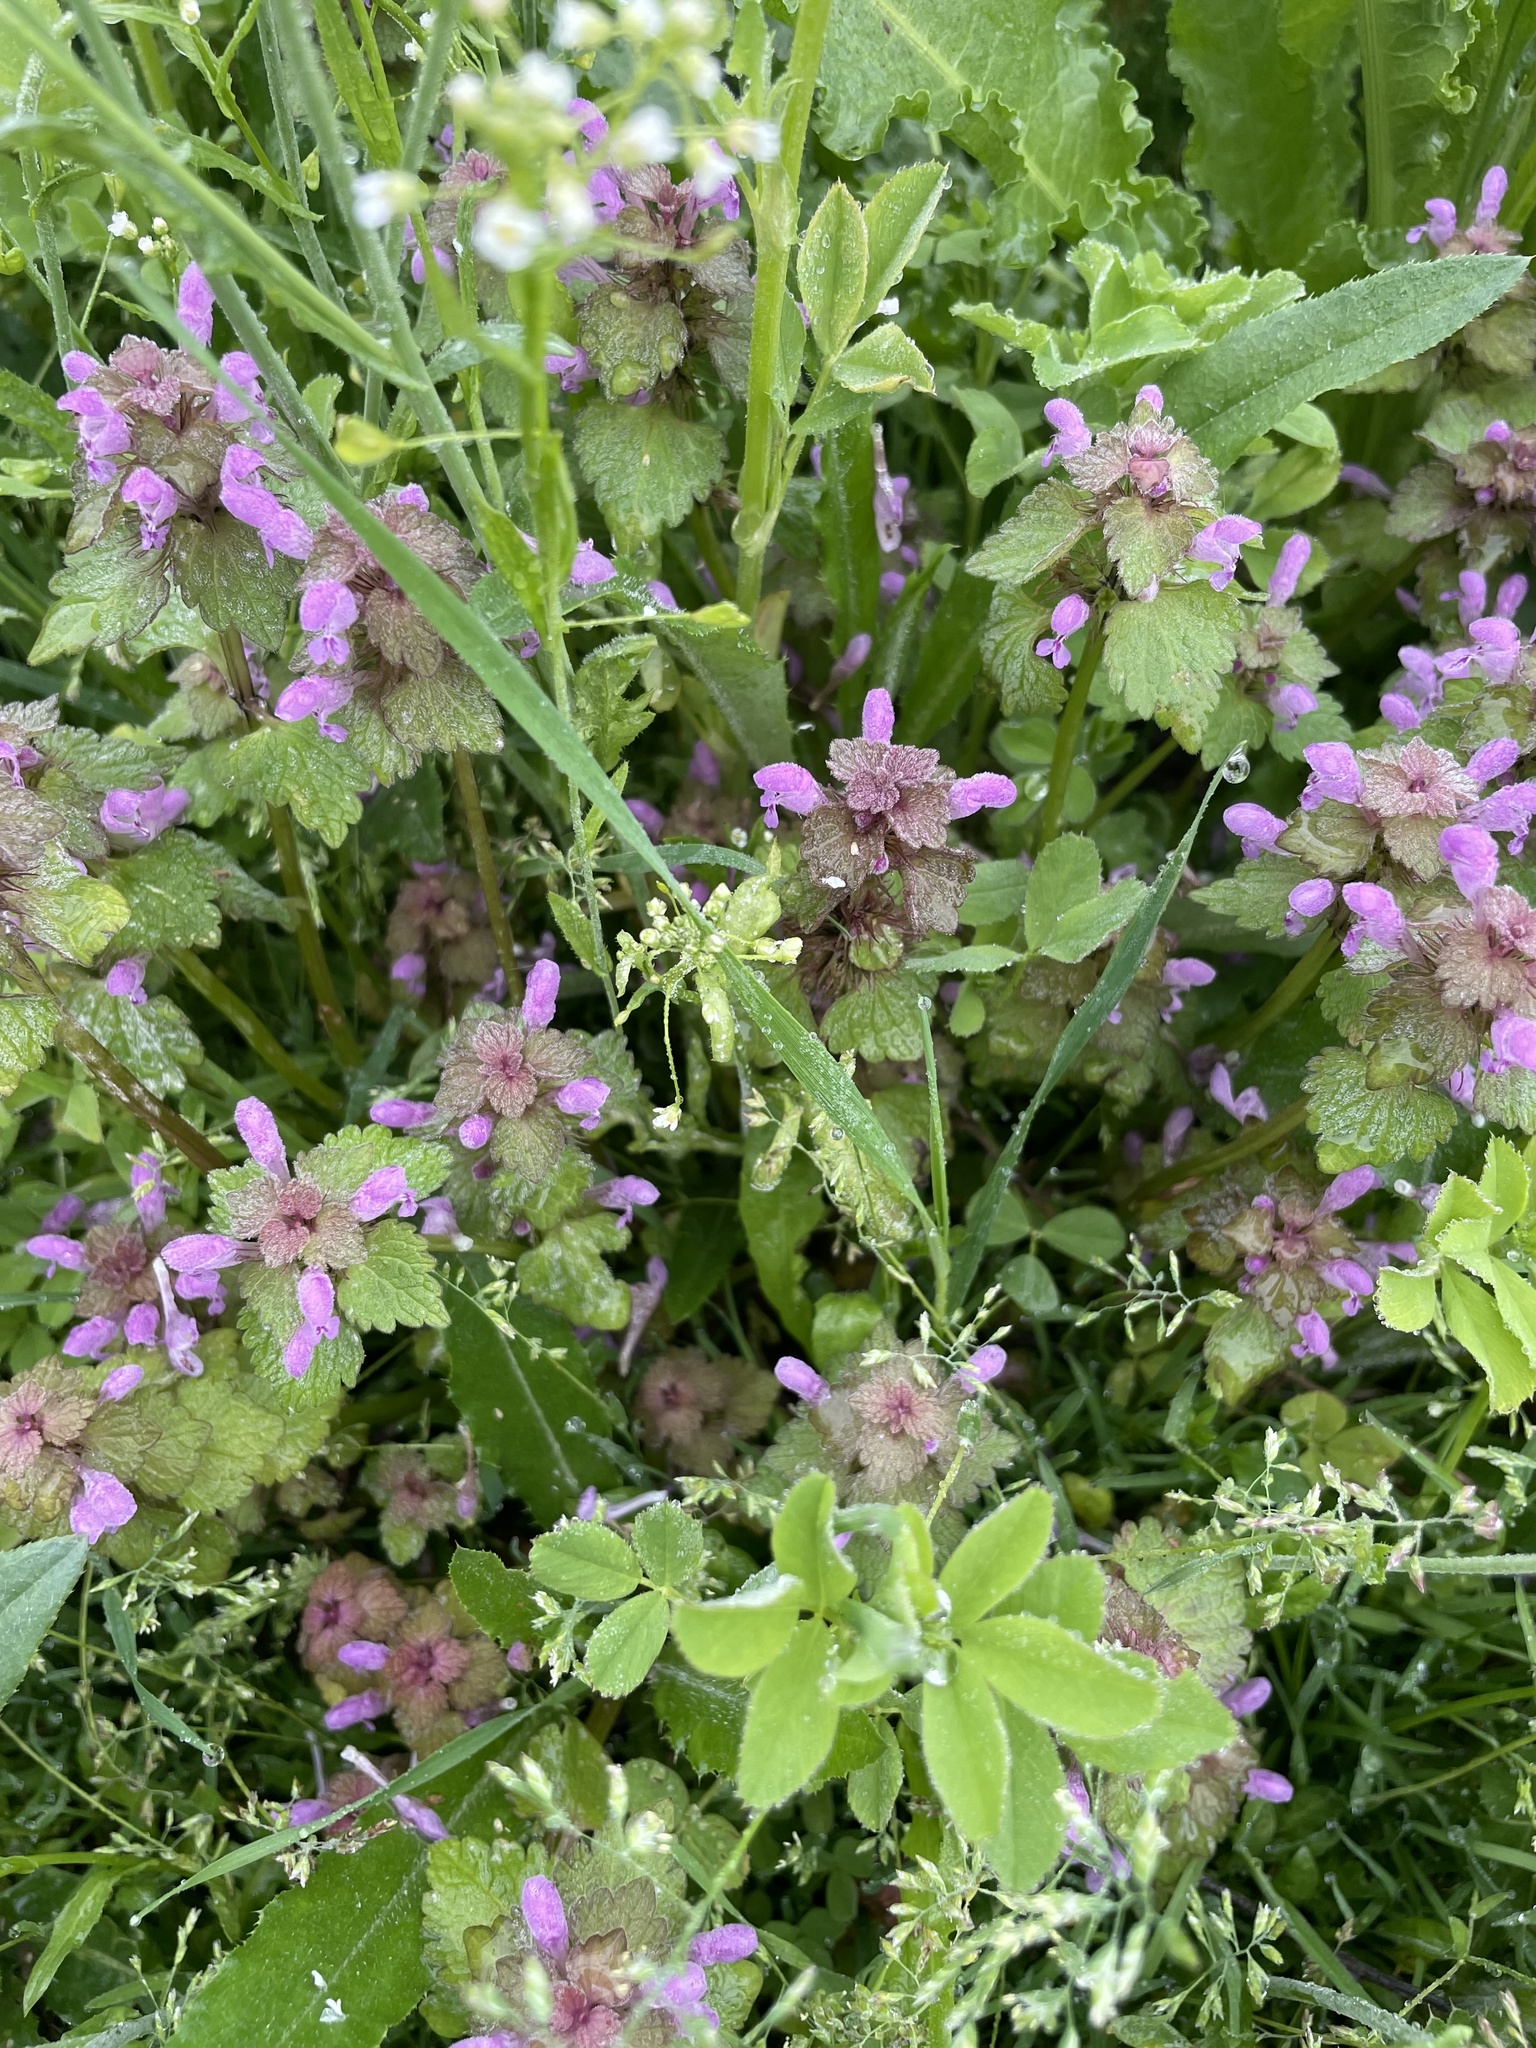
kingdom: Plantae
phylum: Tracheophyta
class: Magnoliopsida
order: Lamiales
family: Lamiaceae
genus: Lamium
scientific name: Lamium purpureum
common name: Red dead-nettle
